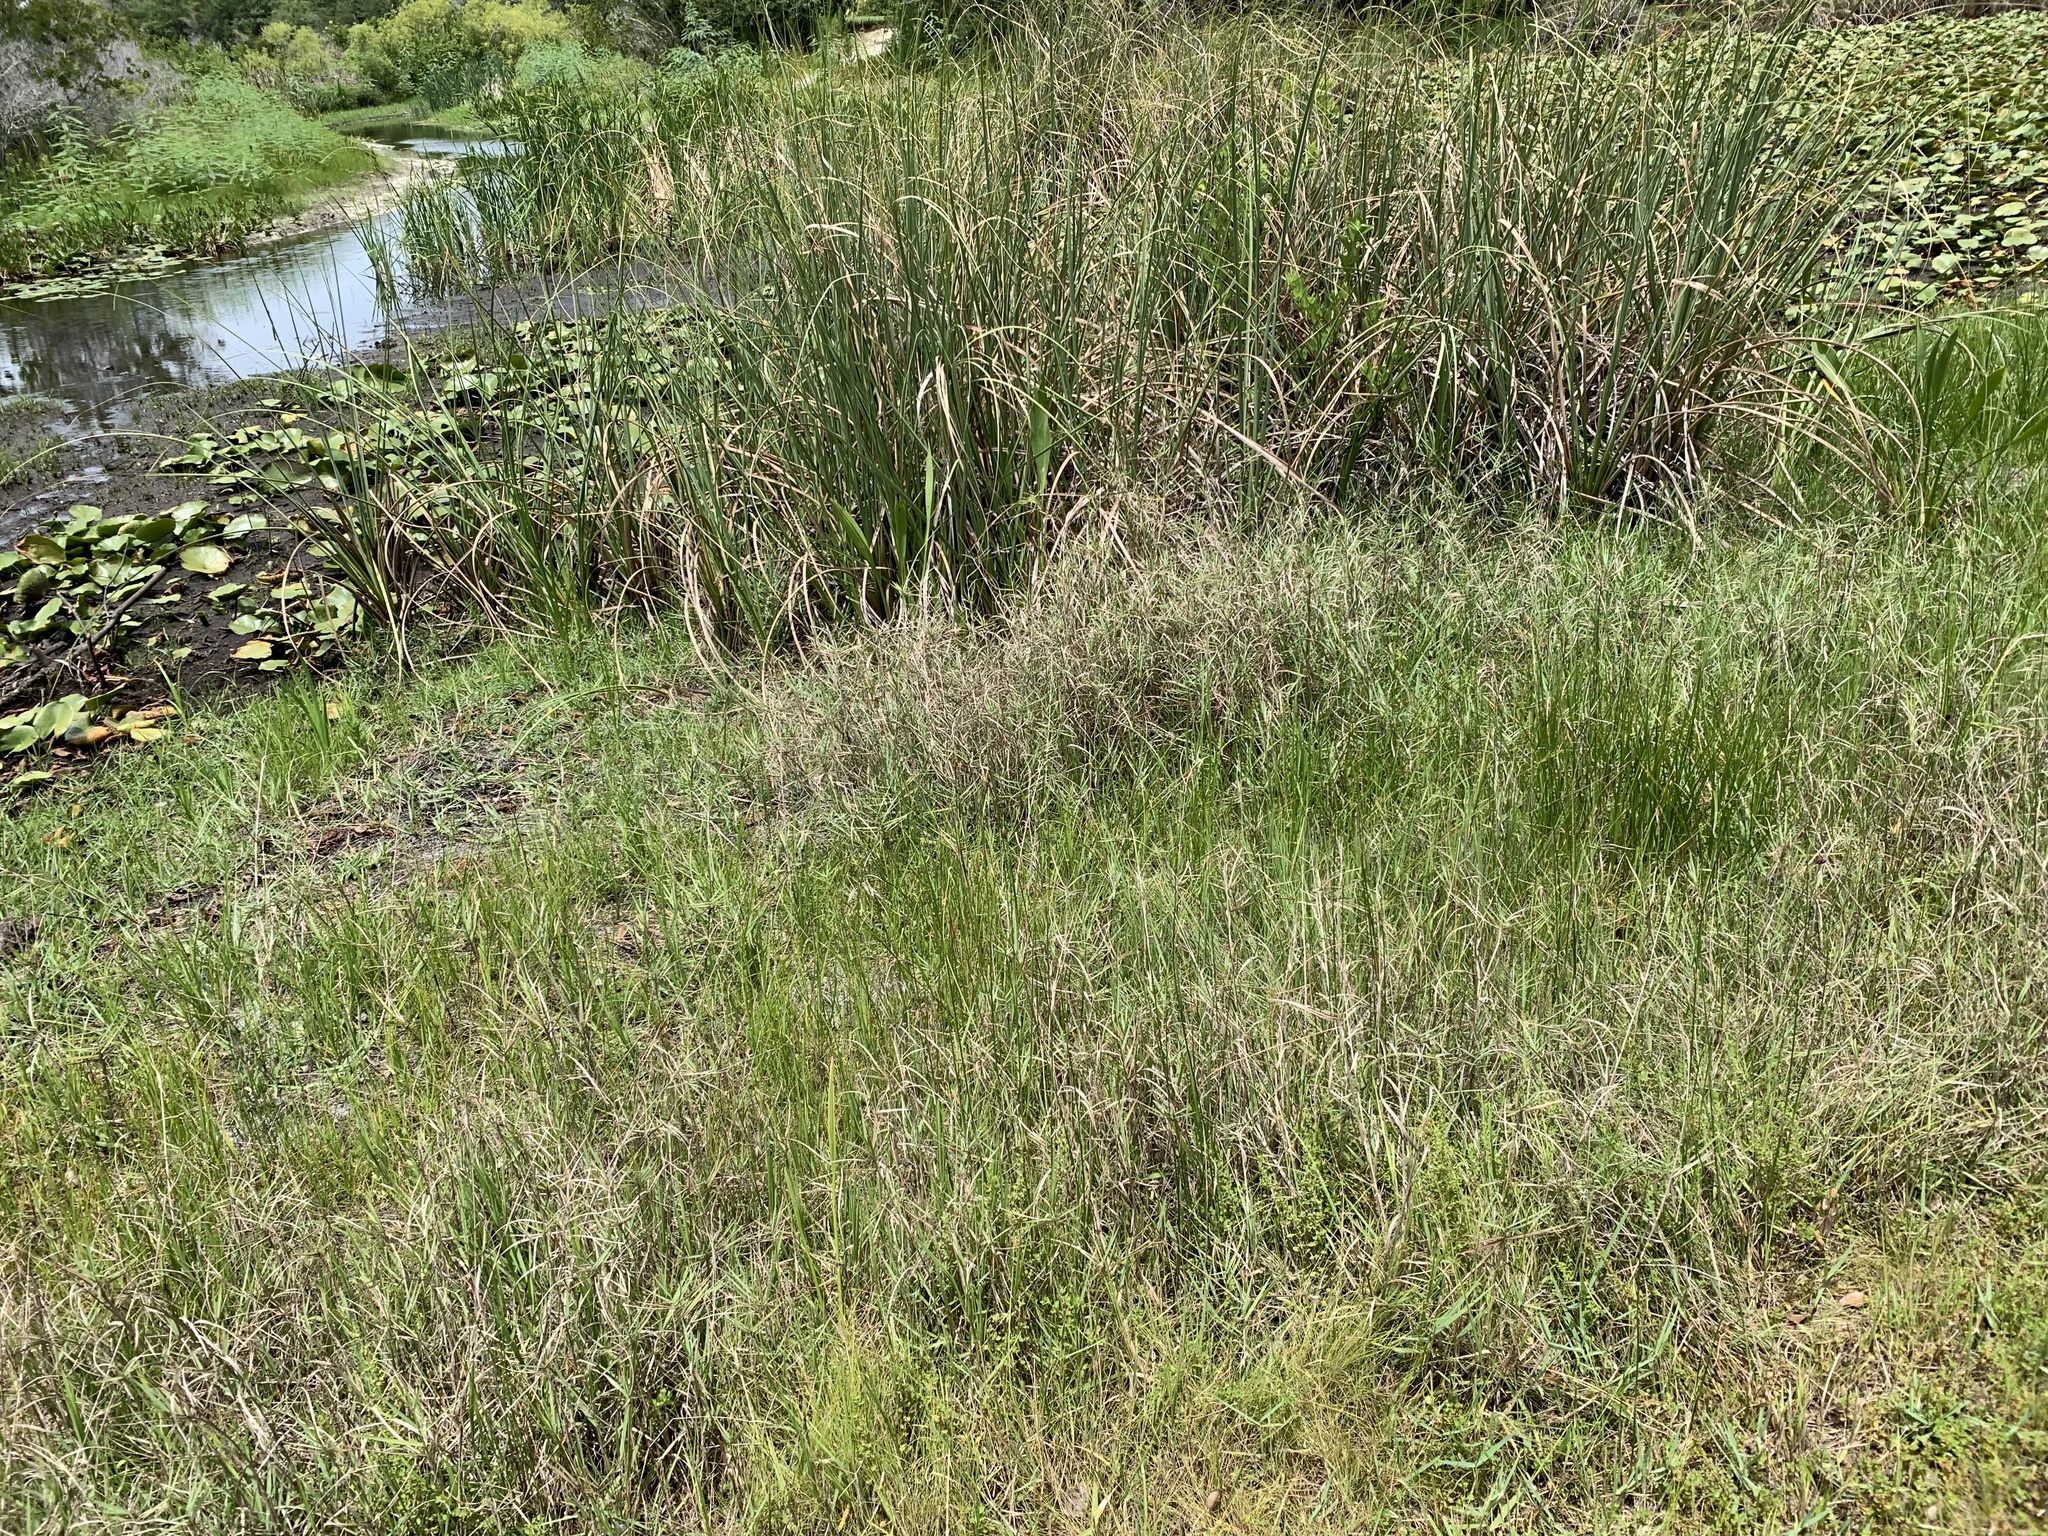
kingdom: Plantae
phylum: Tracheophyta
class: Magnoliopsida
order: Myrtales
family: Onagraceae
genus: Ludwigia
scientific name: Ludwigia microcarpa
